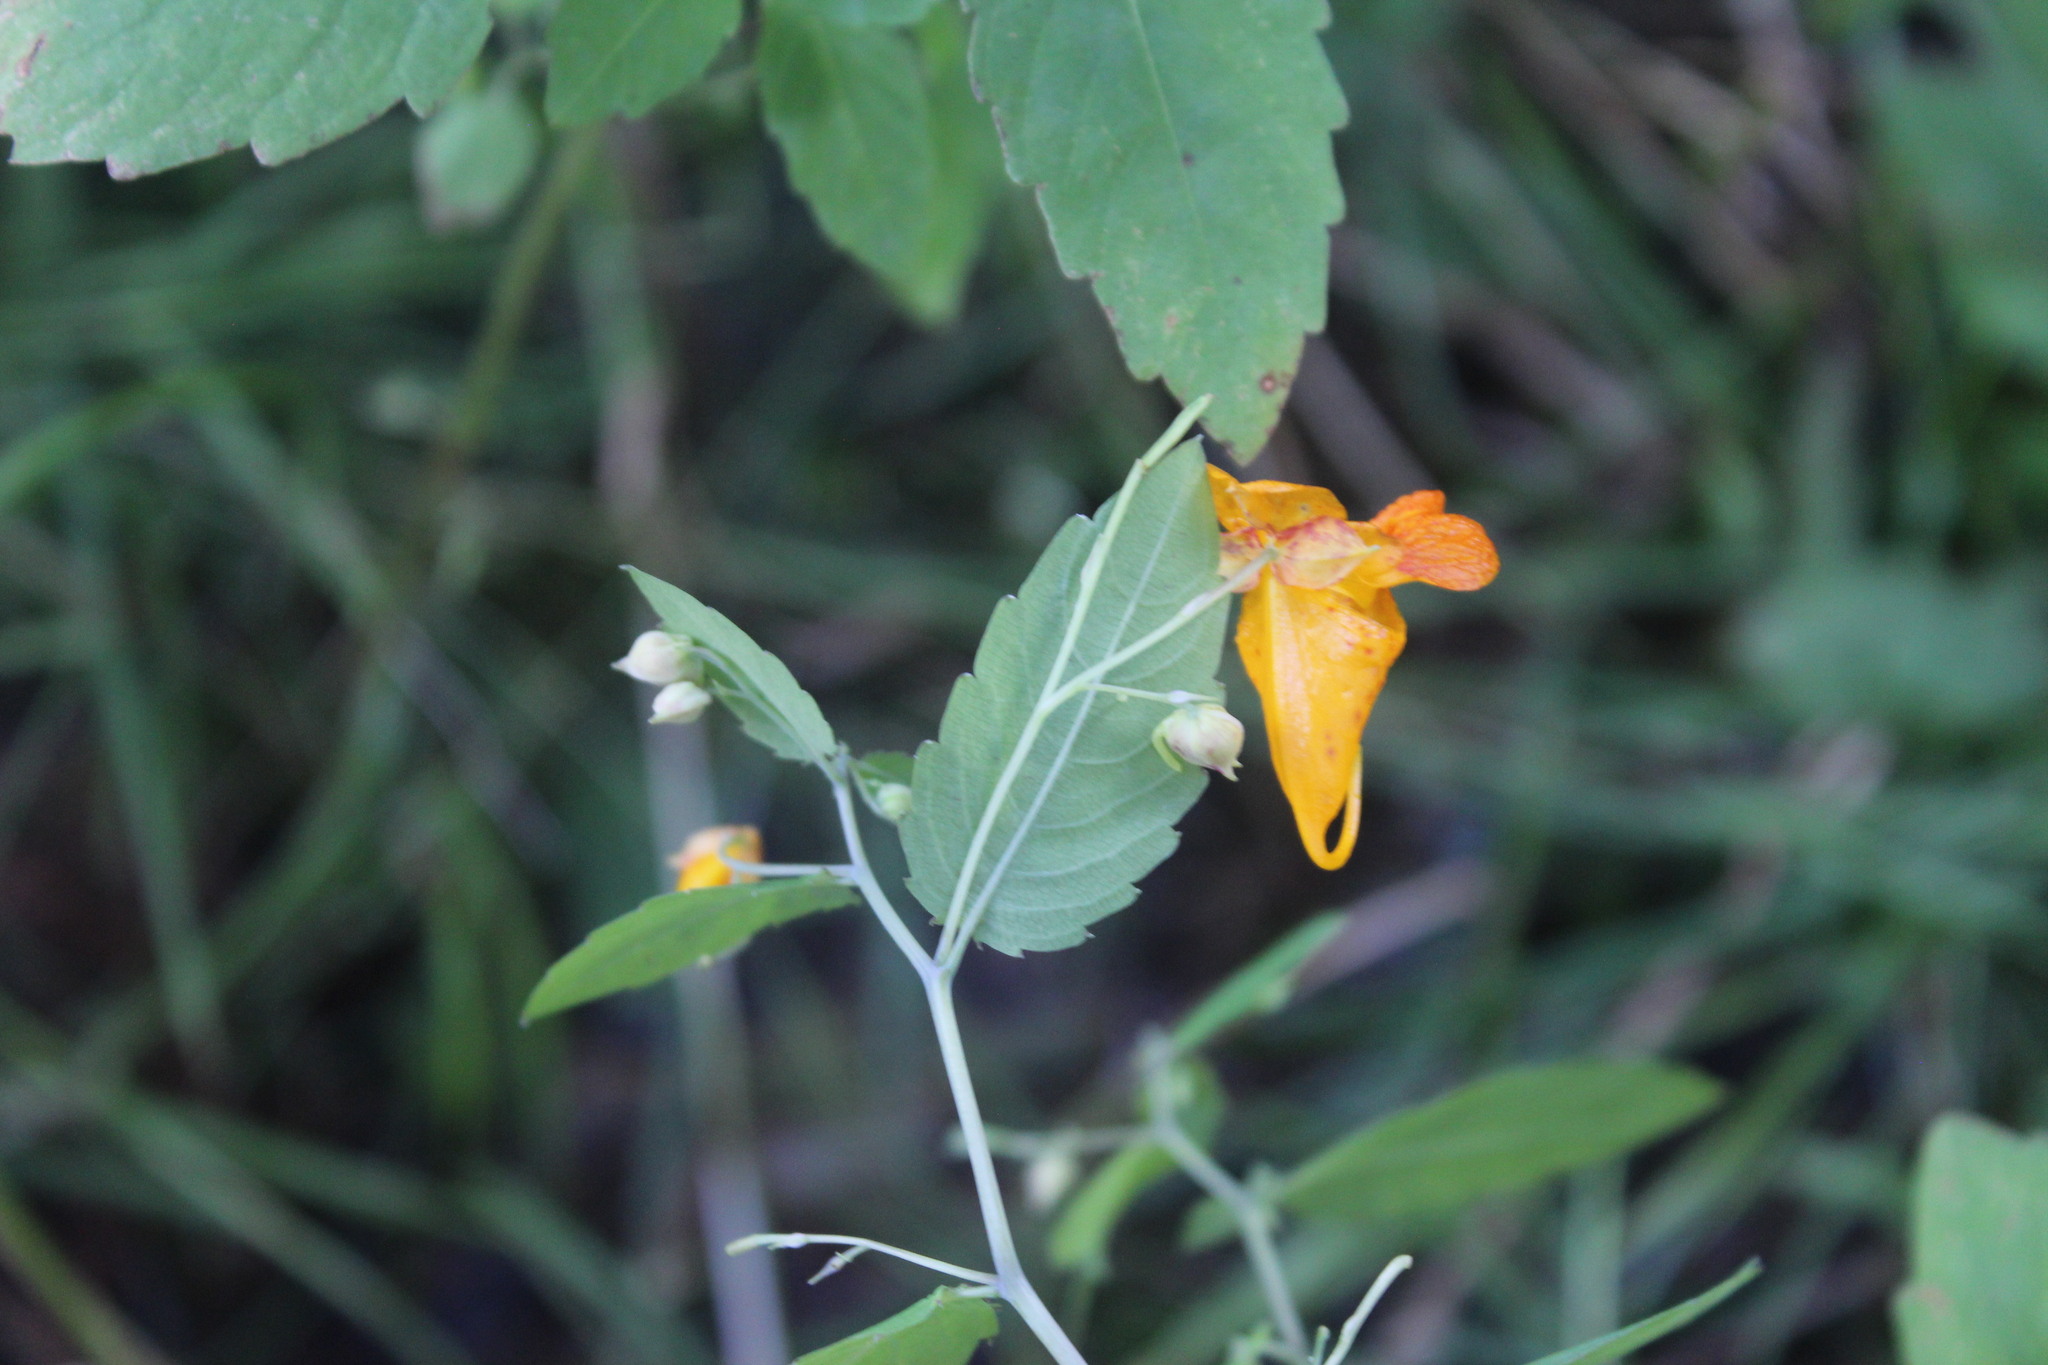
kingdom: Plantae
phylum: Tracheophyta
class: Magnoliopsida
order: Ericales
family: Balsaminaceae
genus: Impatiens
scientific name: Impatiens capensis
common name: Orange balsam
